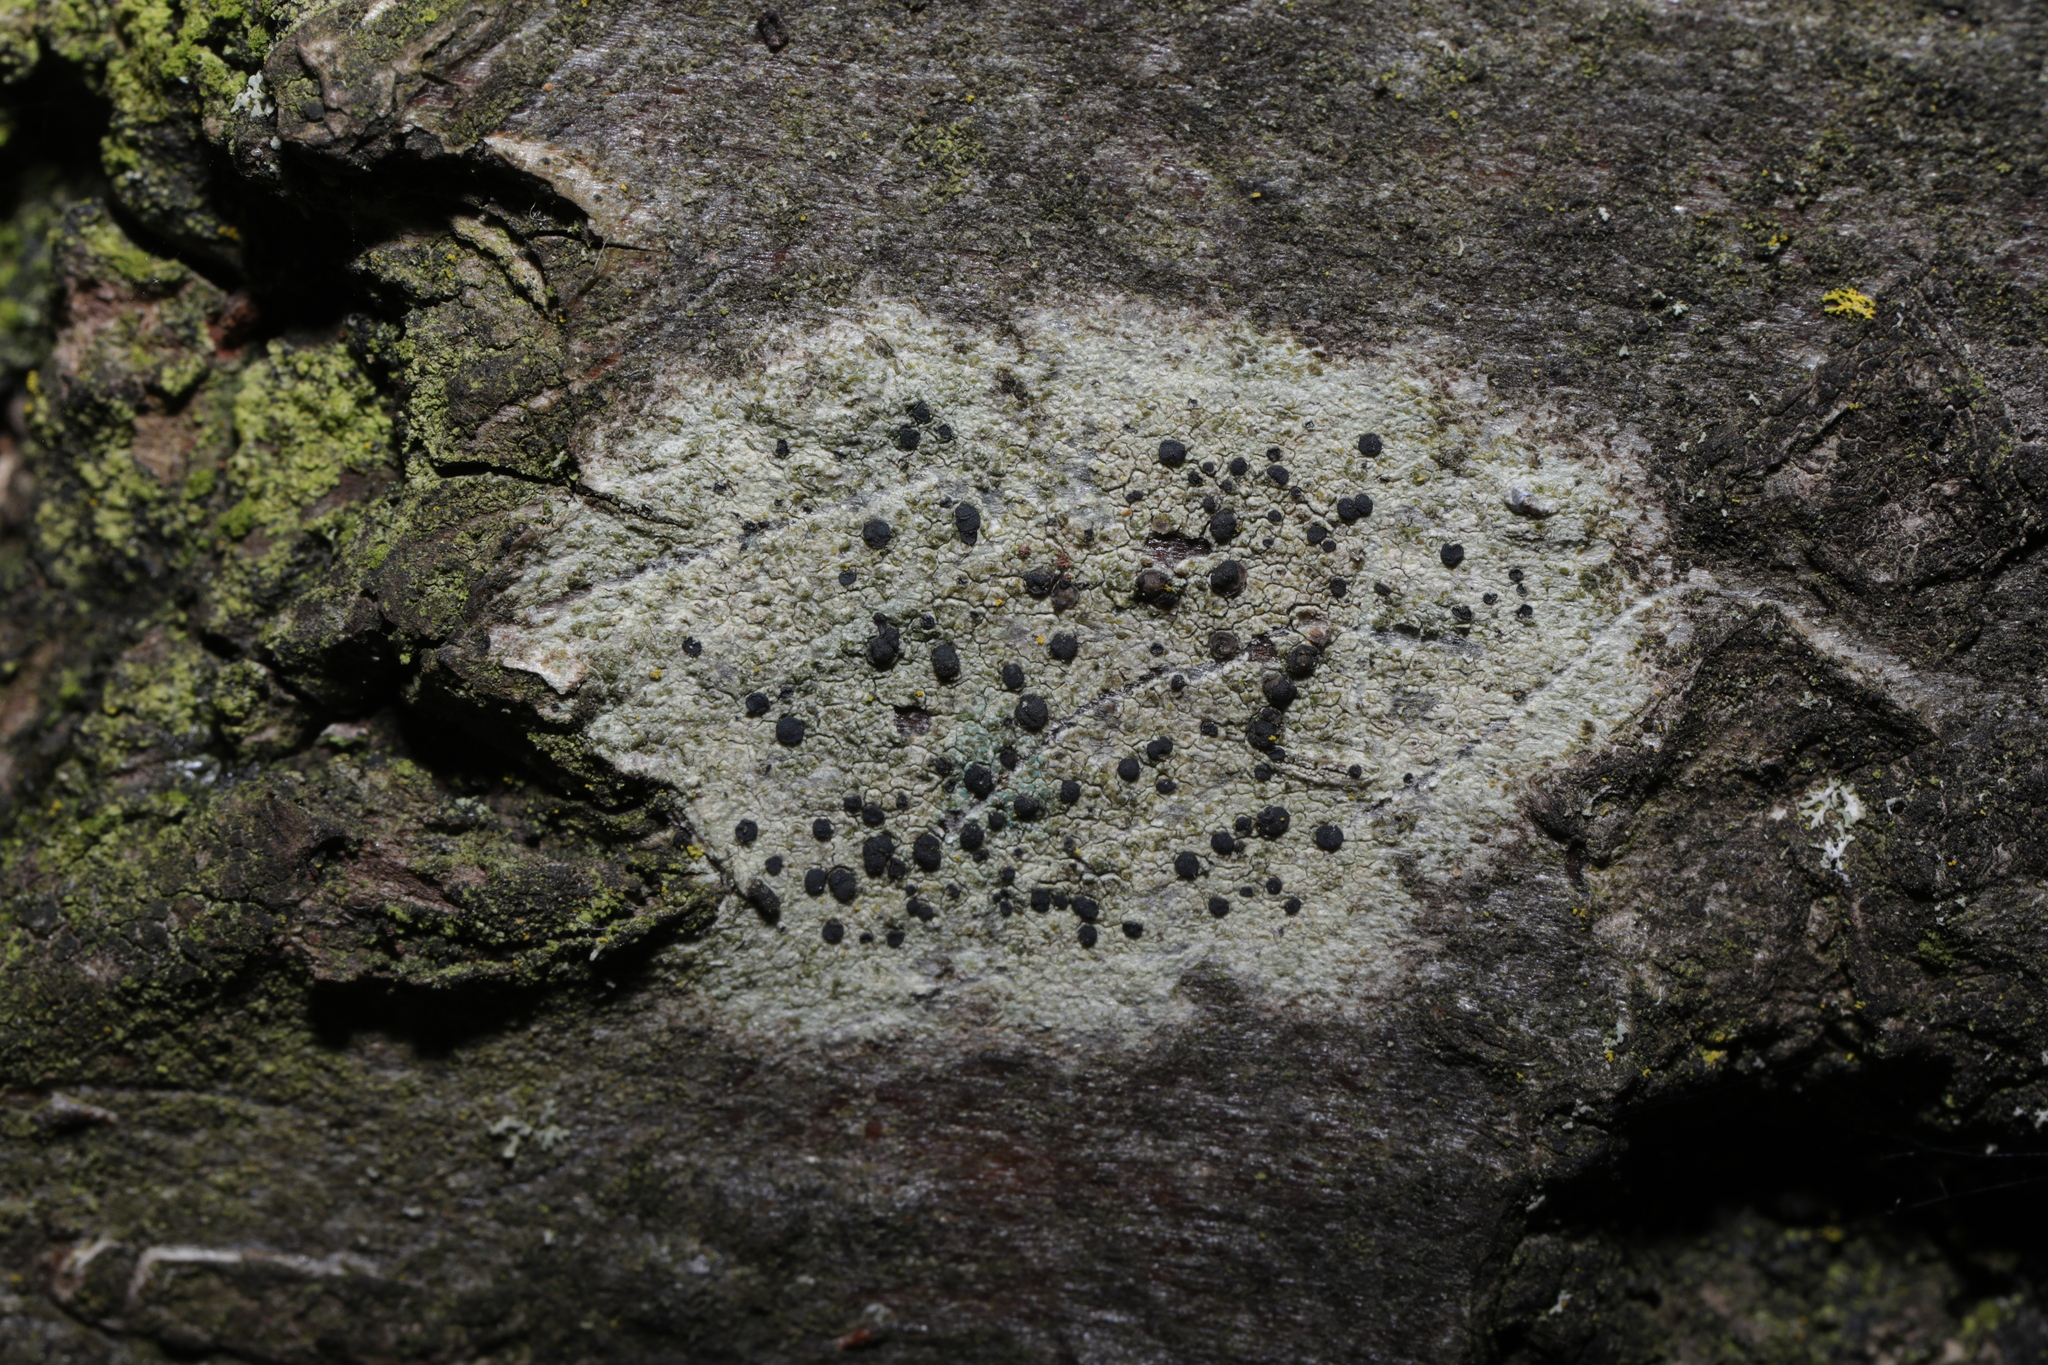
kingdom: Fungi
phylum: Ascomycota
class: Lecanoromycetes
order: Lecanorales
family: Lecanoraceae
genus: Lecidella
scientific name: Lecidella elaeochroma
